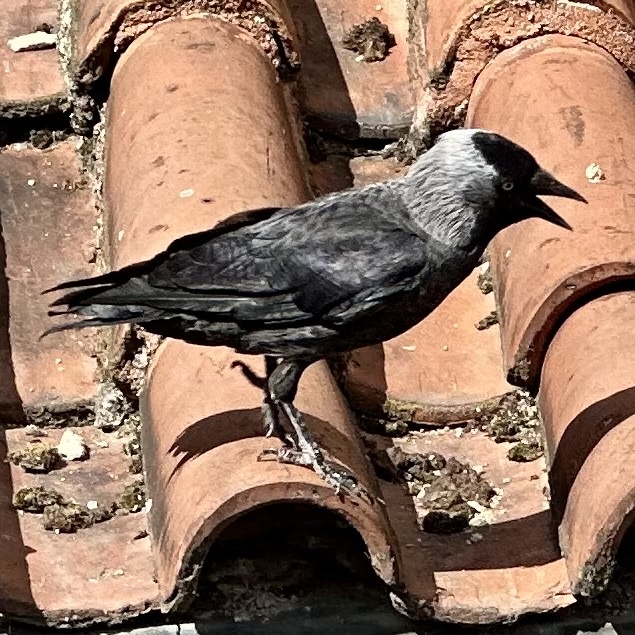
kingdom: Animalia
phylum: Chordata
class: Aves
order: Passeriformes
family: Corvidae
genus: Coloeus
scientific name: Coloeus monedula
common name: Western jackdaw
